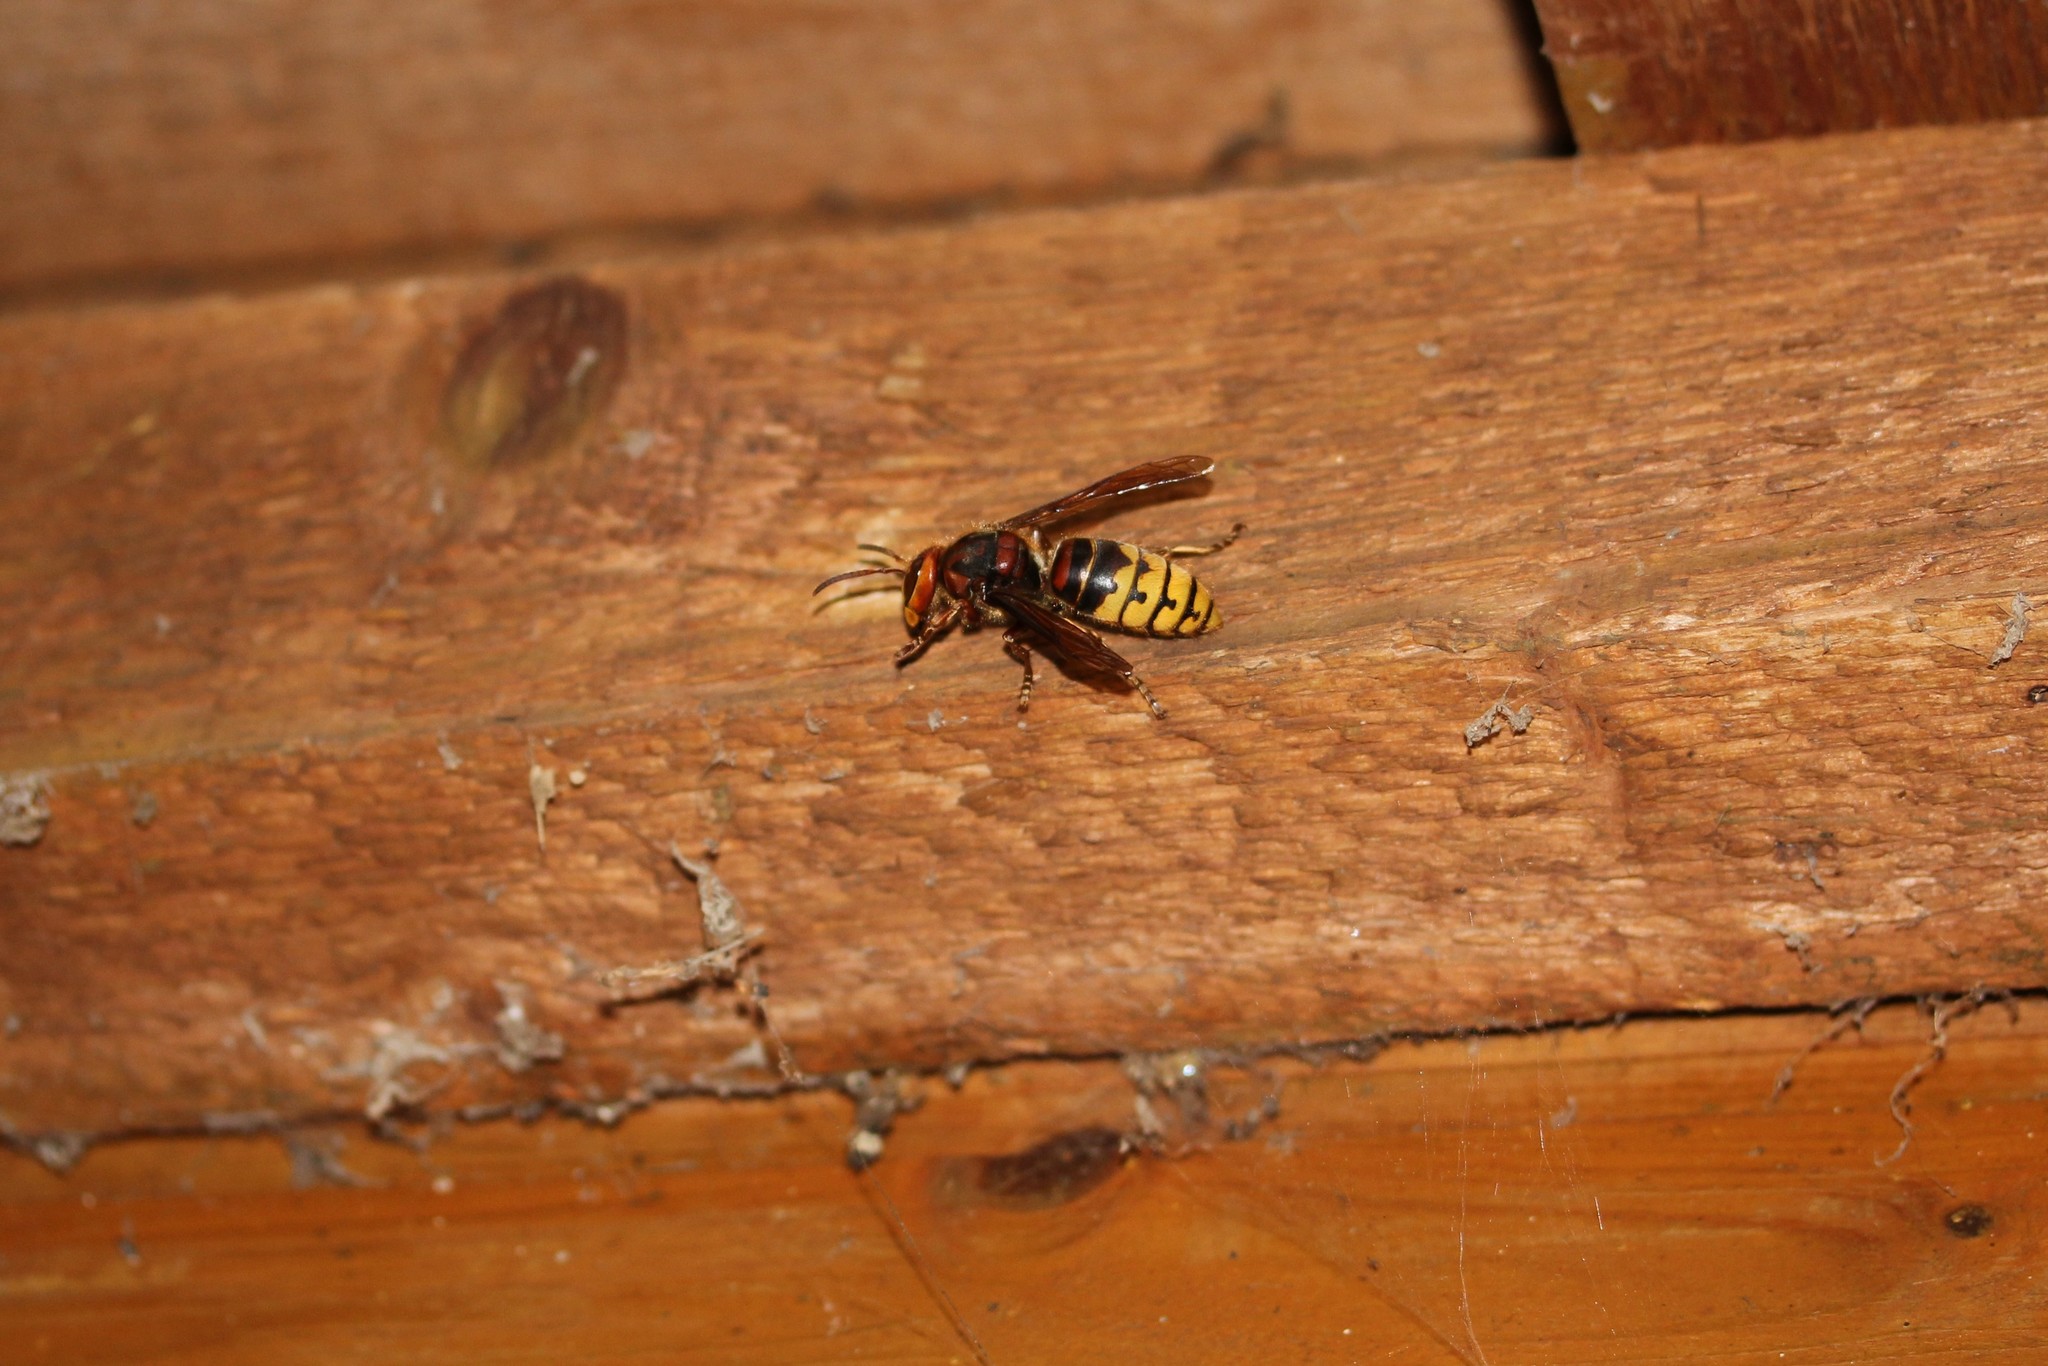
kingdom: Animalia
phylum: Arthropoda
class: Insecta
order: Hymenoptera
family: Vespidae
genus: Vespa
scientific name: Vespa crabro
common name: Hornet
